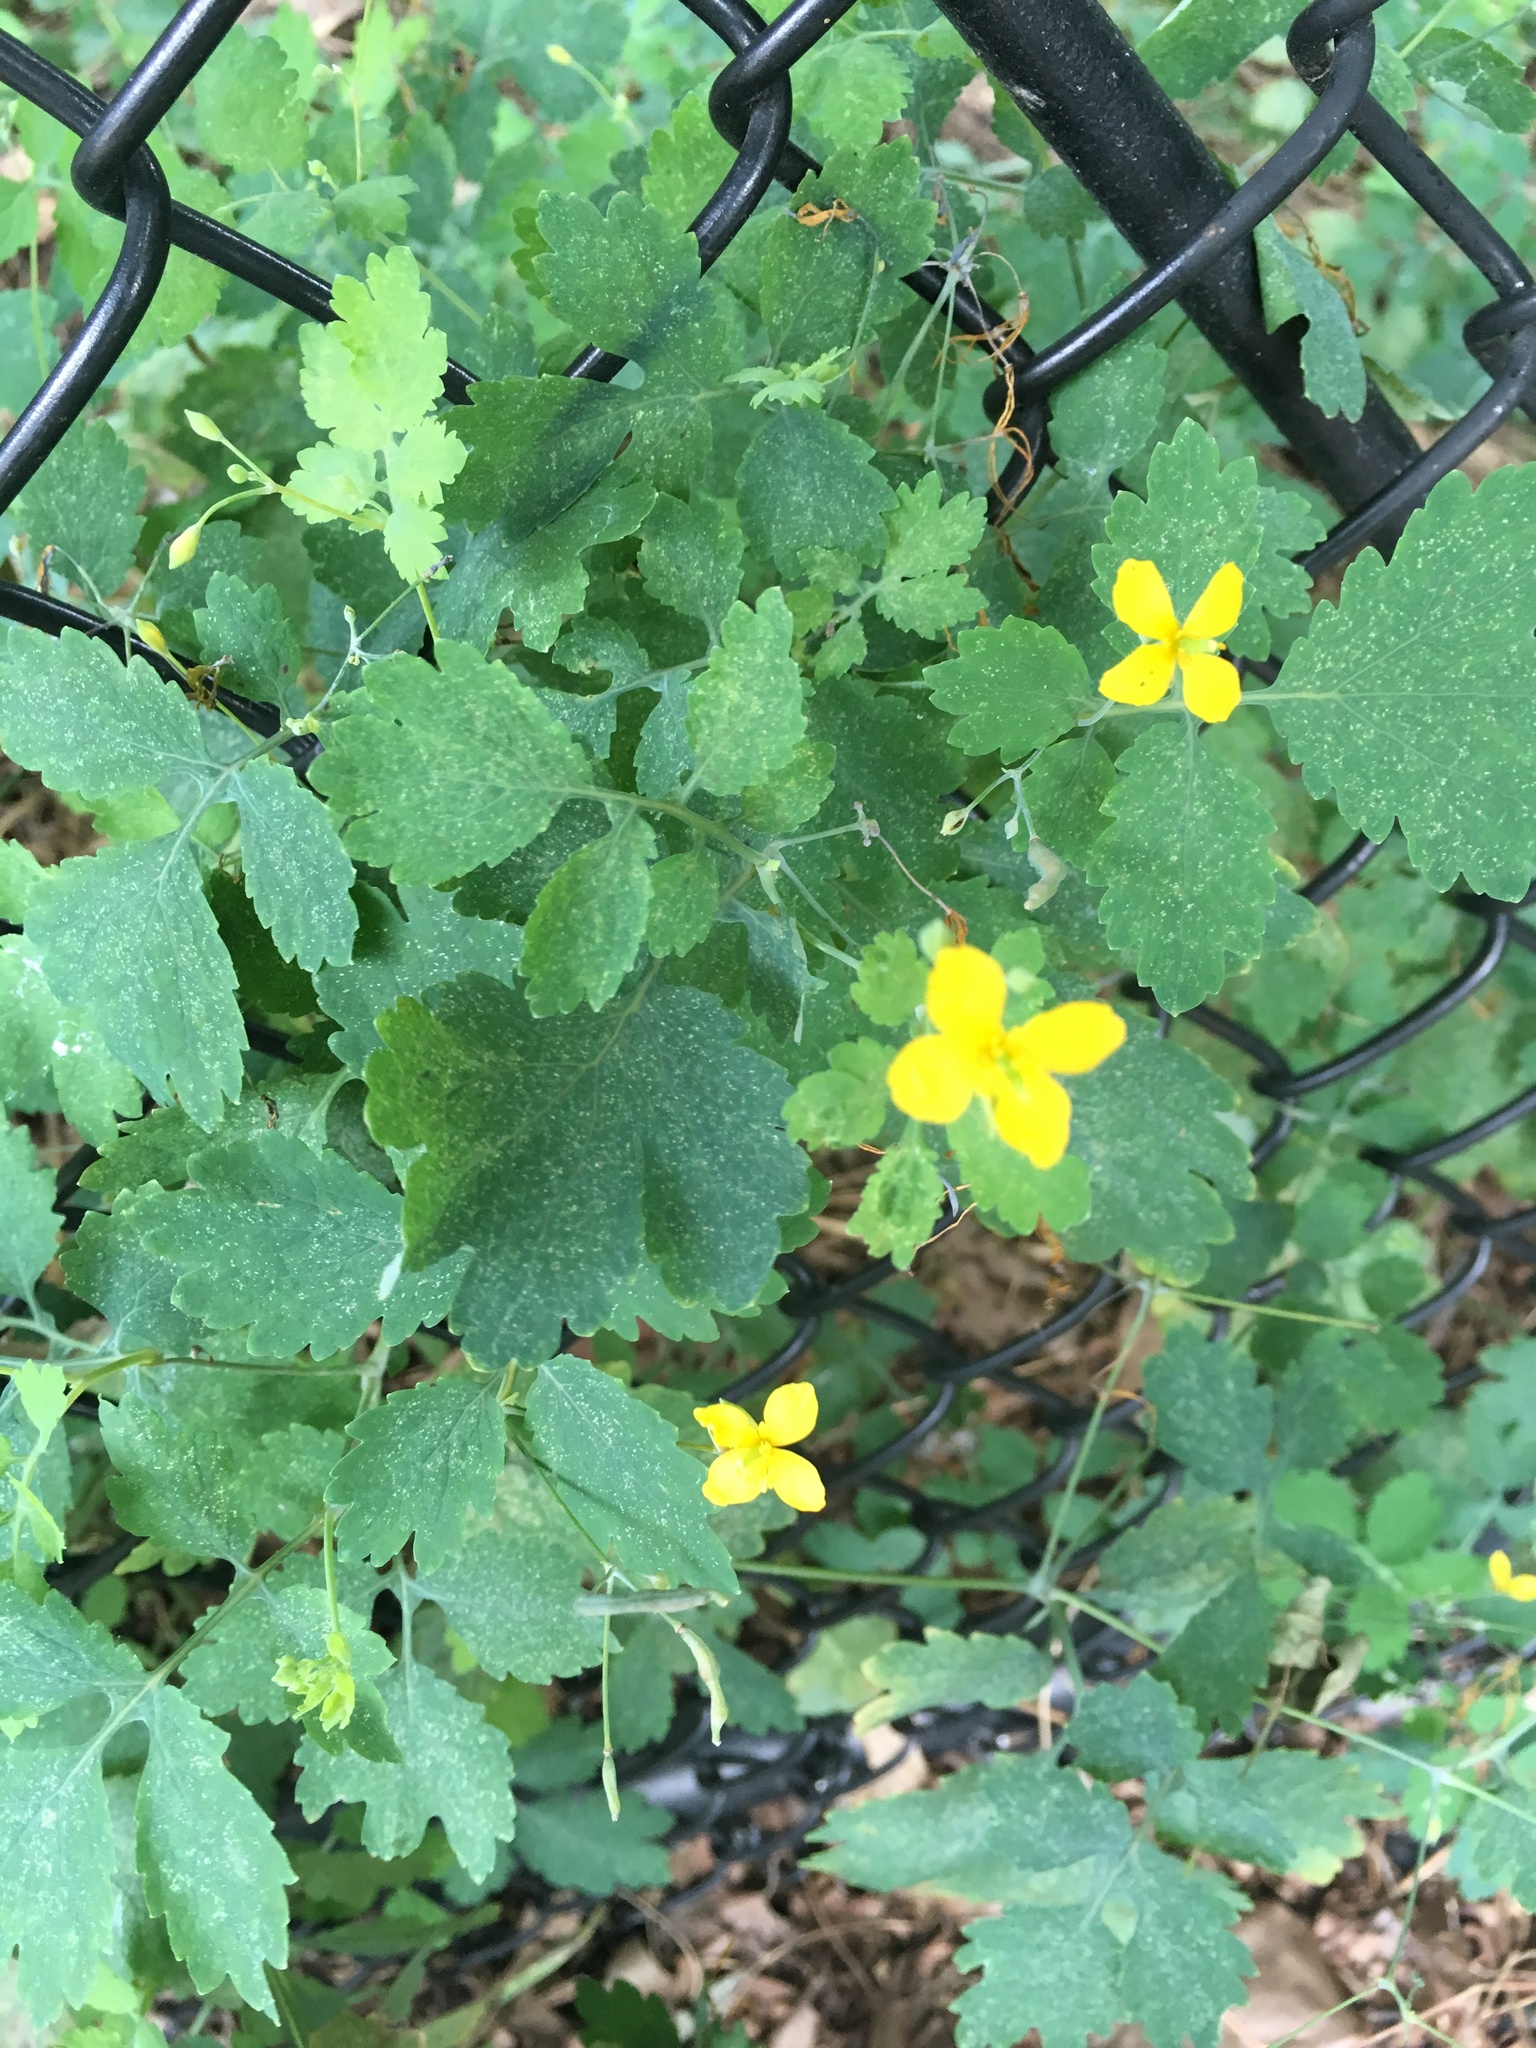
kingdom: Plantae
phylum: Tracheophyta
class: Magnoliopsida
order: Ranunculales
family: Papaveraceae
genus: Chelidonium
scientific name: Chelidonium majus
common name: Greater celandine
